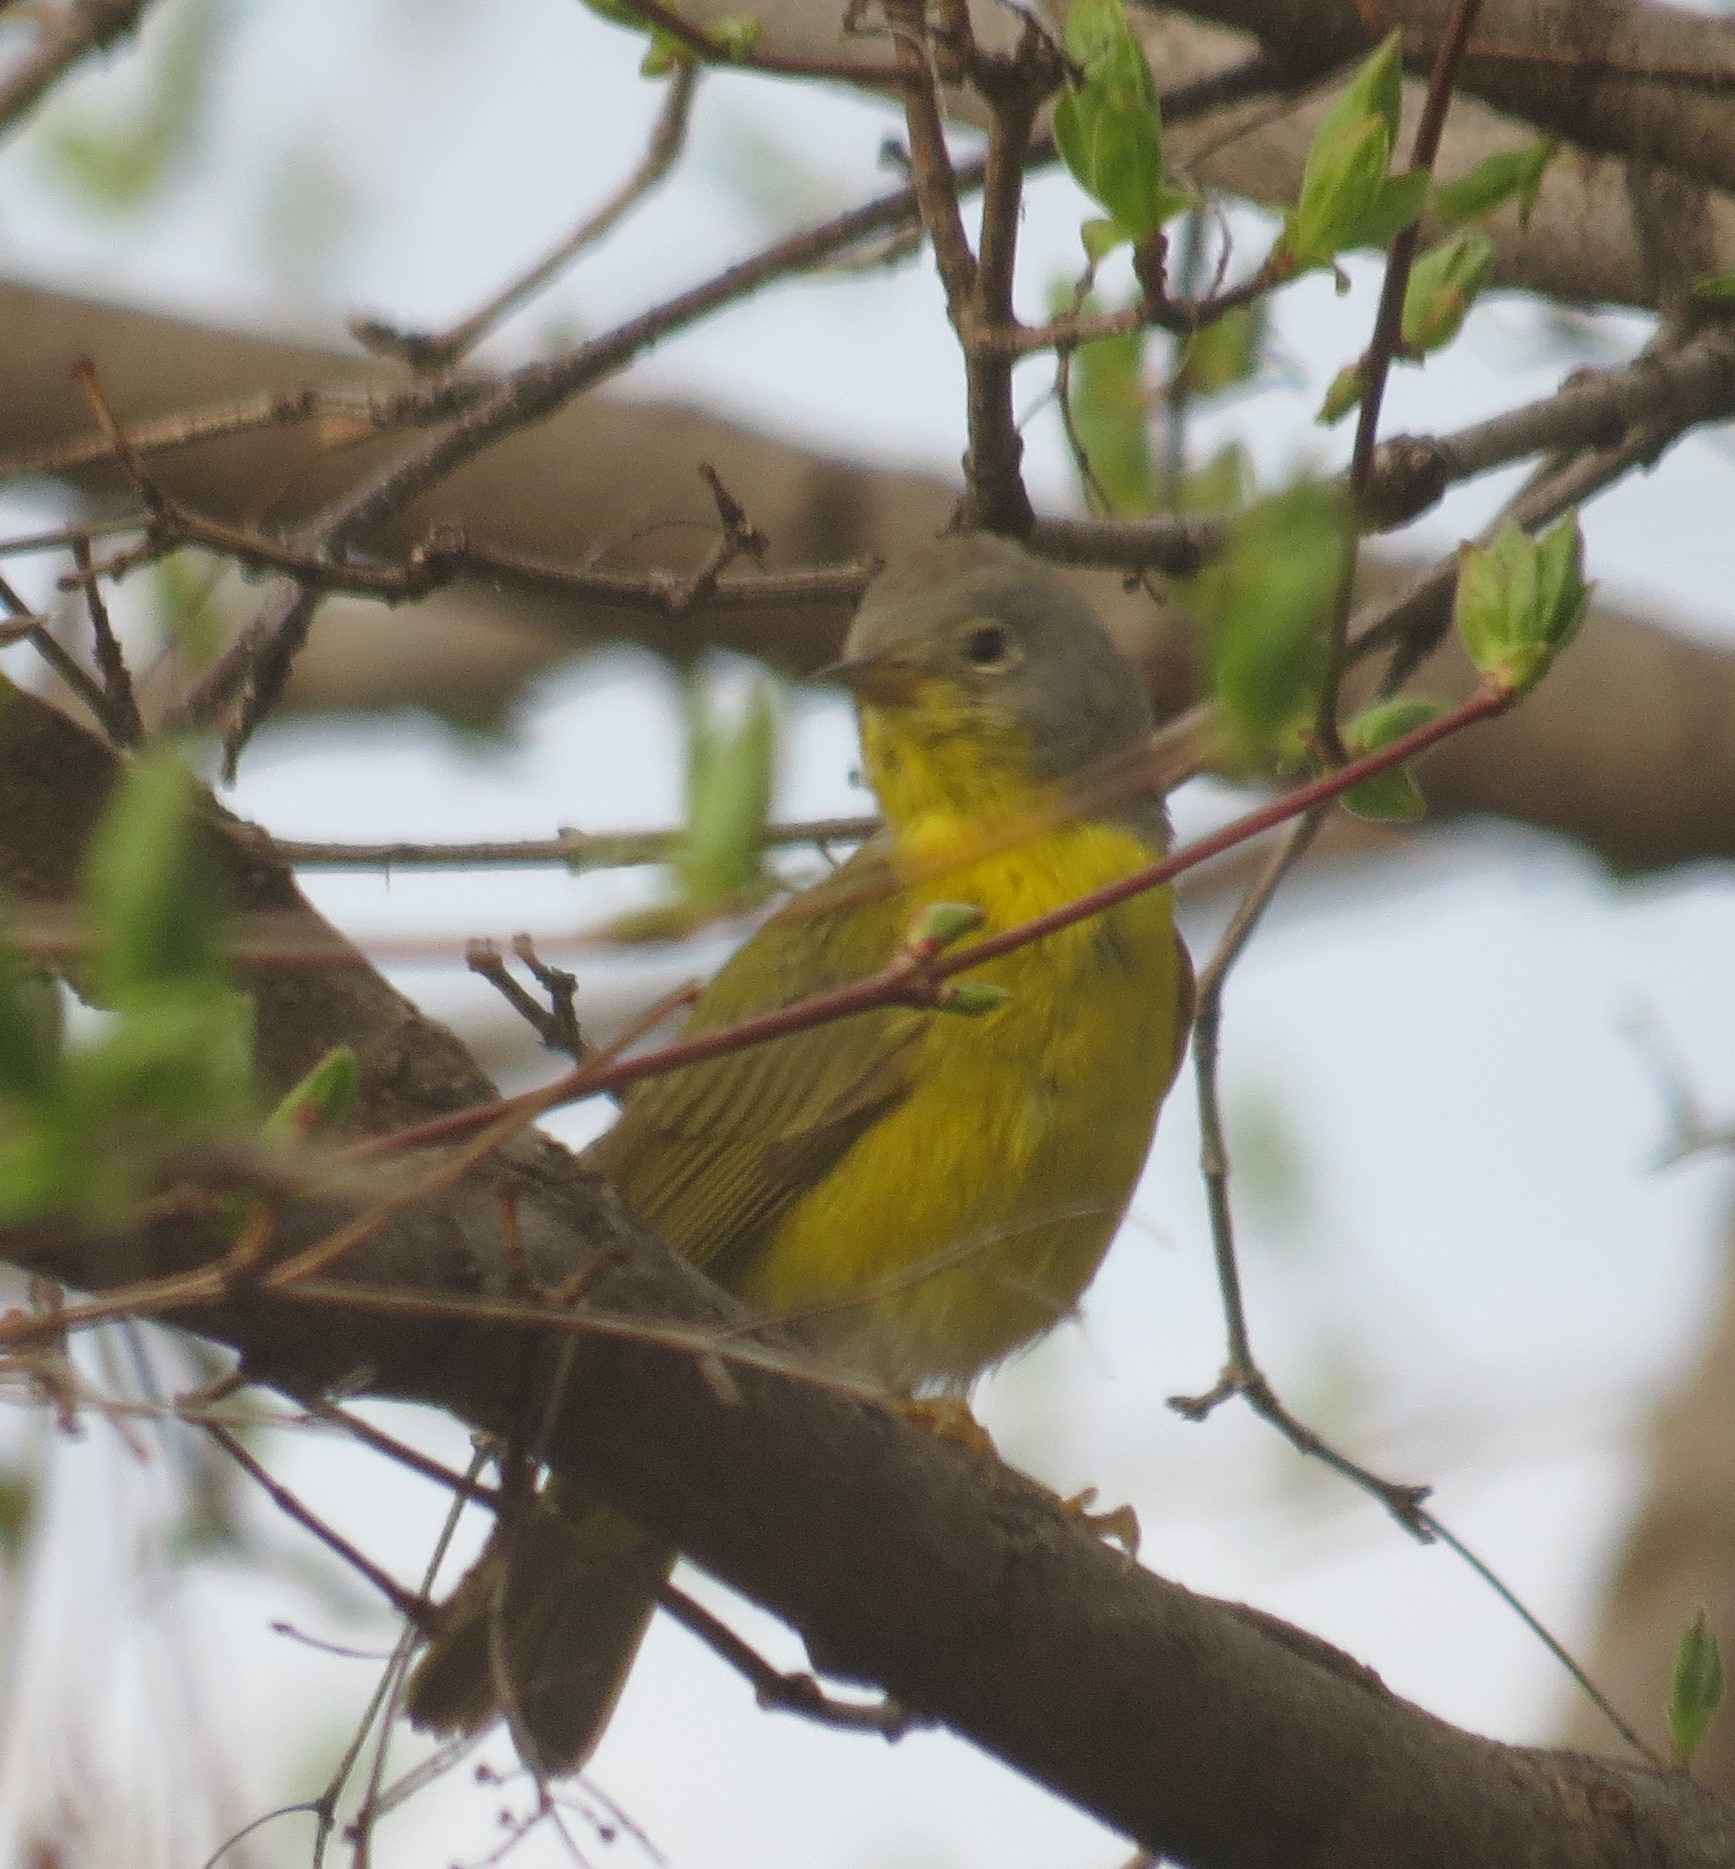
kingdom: Animalia
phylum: Chordata
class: Aves
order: Passeriformes
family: Parulidae
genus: Leiothlypis
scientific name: Leiothlypis ruficapilla
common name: Nashville warbler
